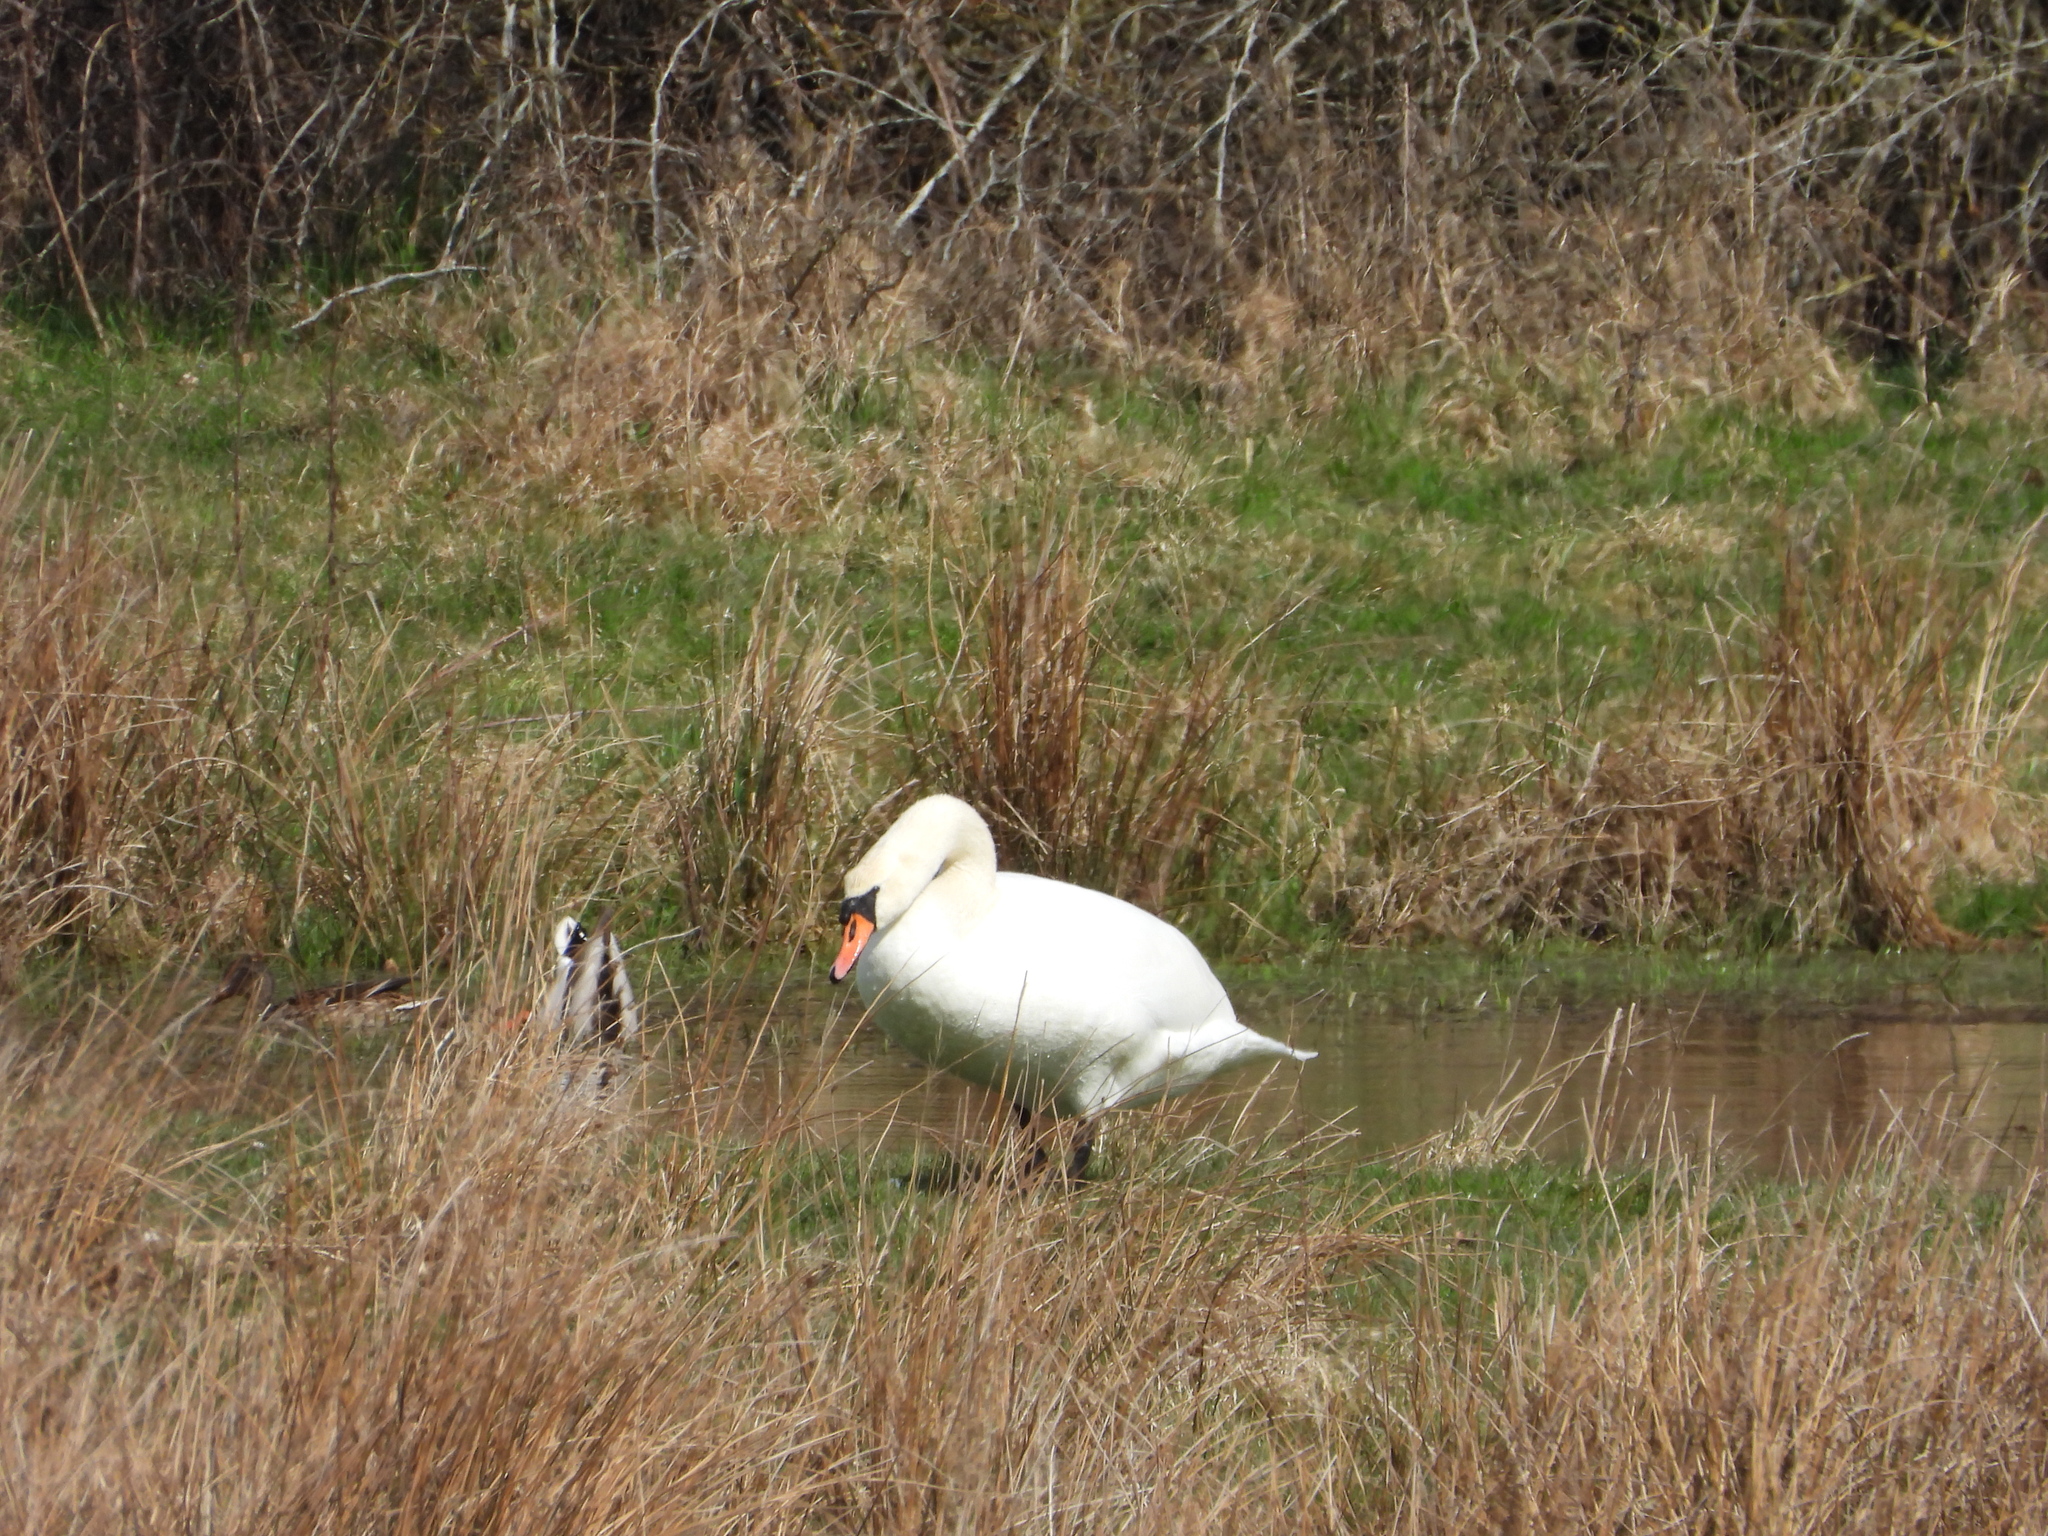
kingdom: Animalia
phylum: Chordata
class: Aves
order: Anseriformes
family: Anatidae
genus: Cygnus
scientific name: Cygnus olor
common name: Mute swan
